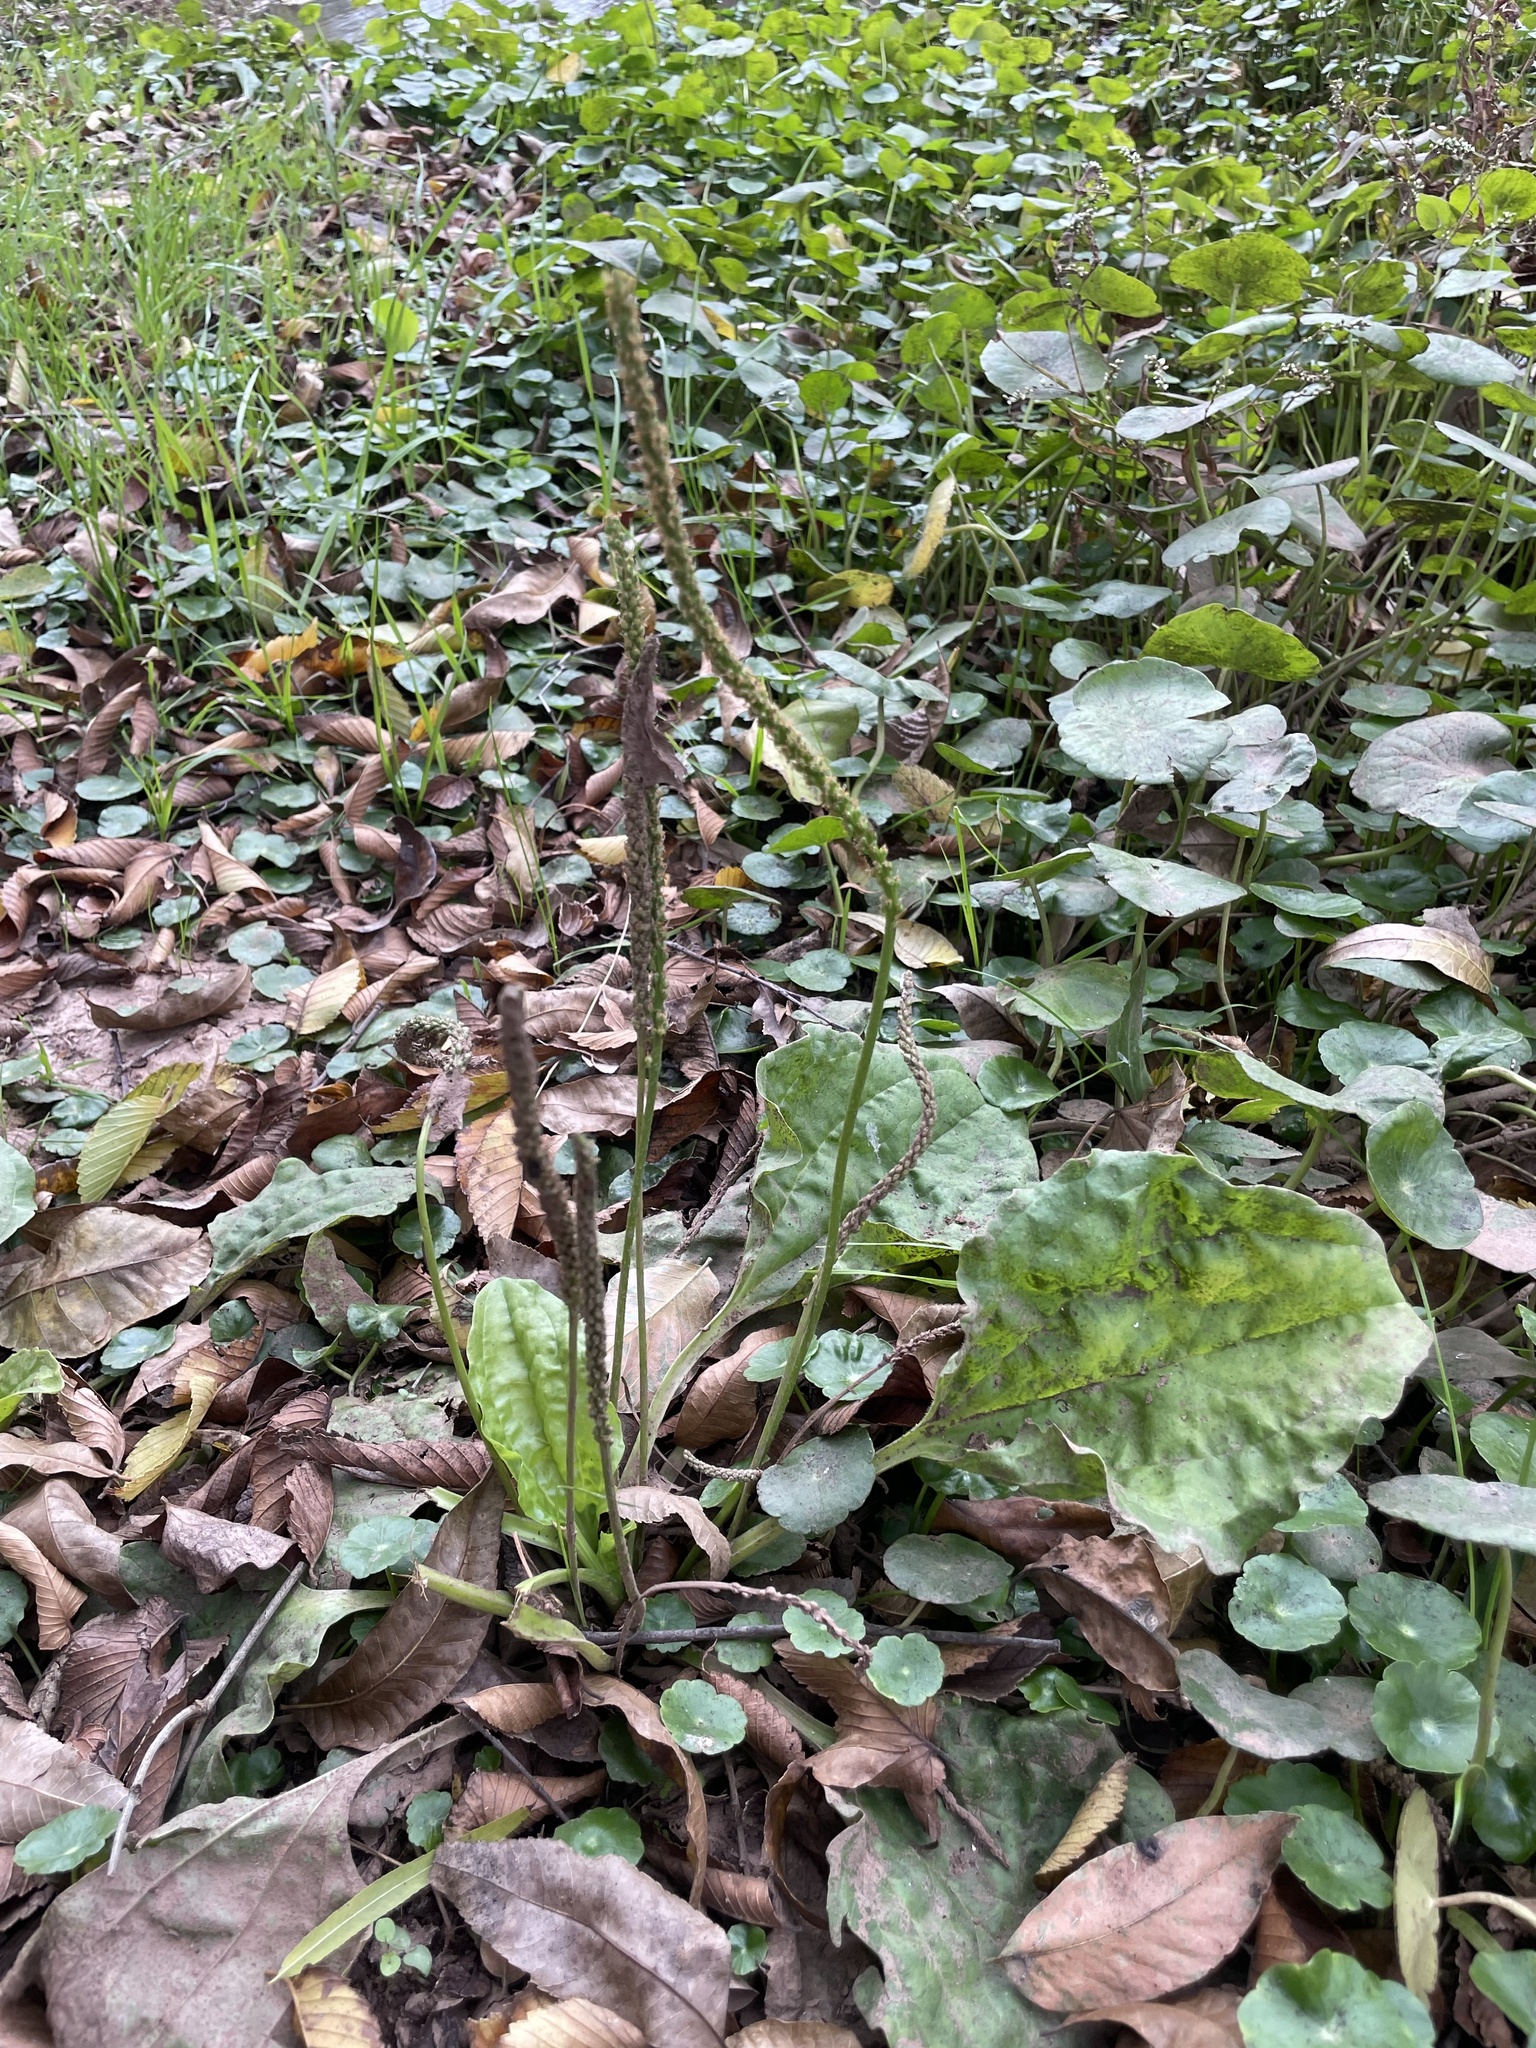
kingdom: Plantae
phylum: Tracheophyta
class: Magnoliopsida
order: Lamiales
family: Plantaginaceae
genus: Plantago
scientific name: Plantago major
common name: Common plantain
